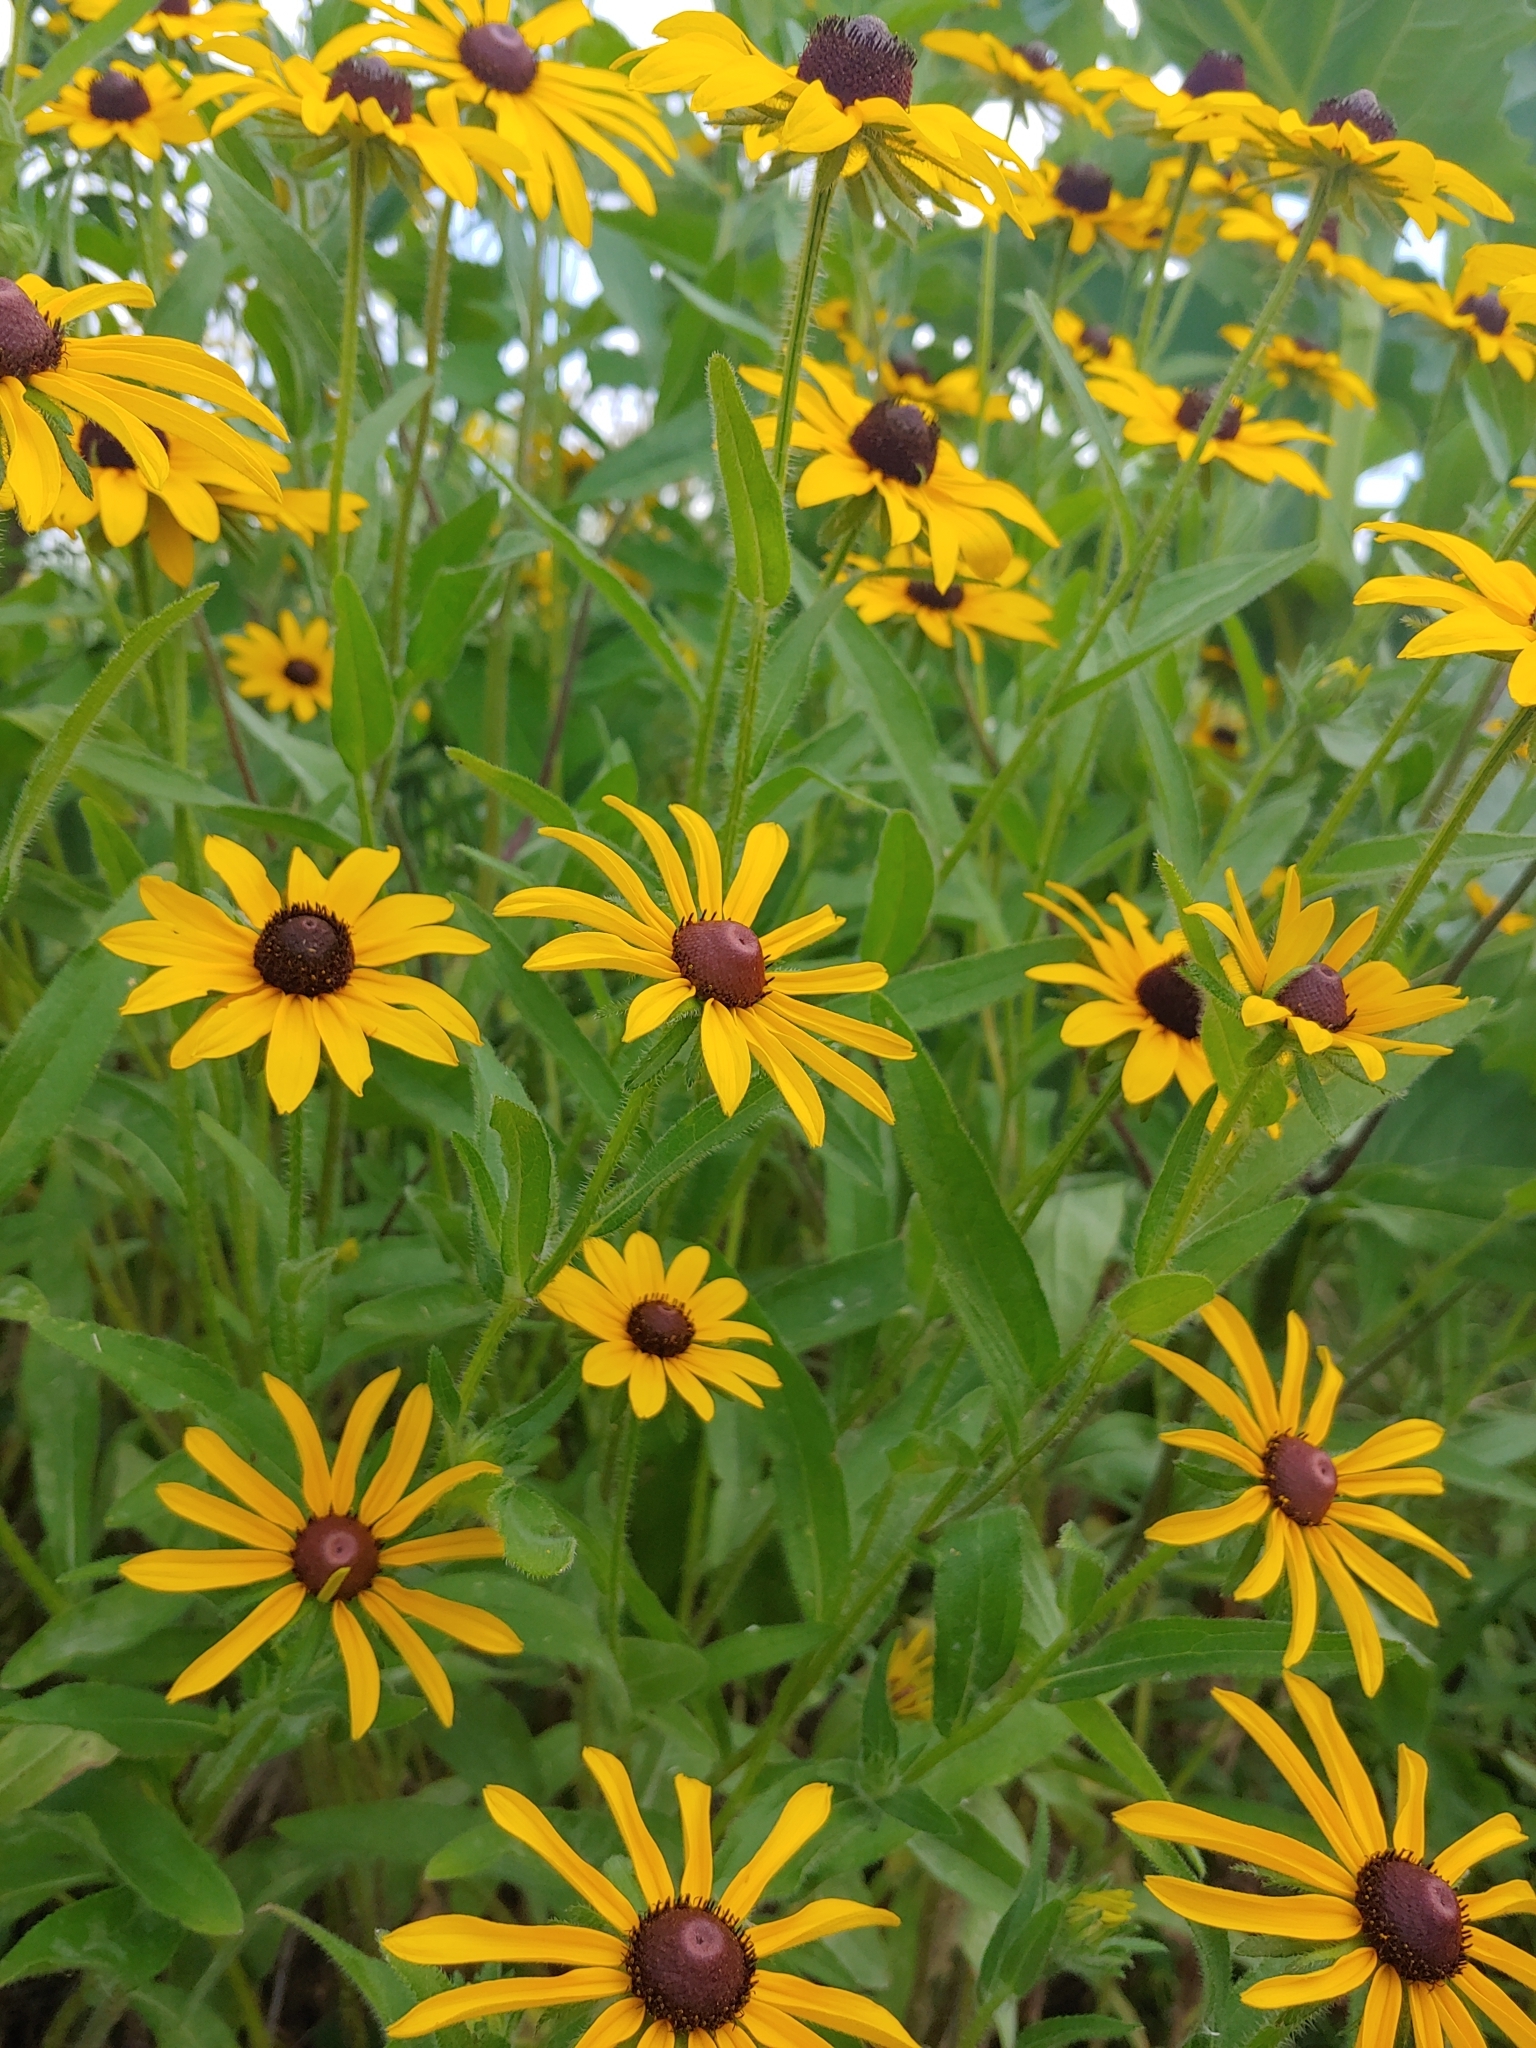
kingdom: Plantae
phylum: Tracheophyta
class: Magnoliopsida
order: Asterales
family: Asteraceae
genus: Rudbeckia
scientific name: Rudbeckia hirta
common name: Black-eyed-susan
